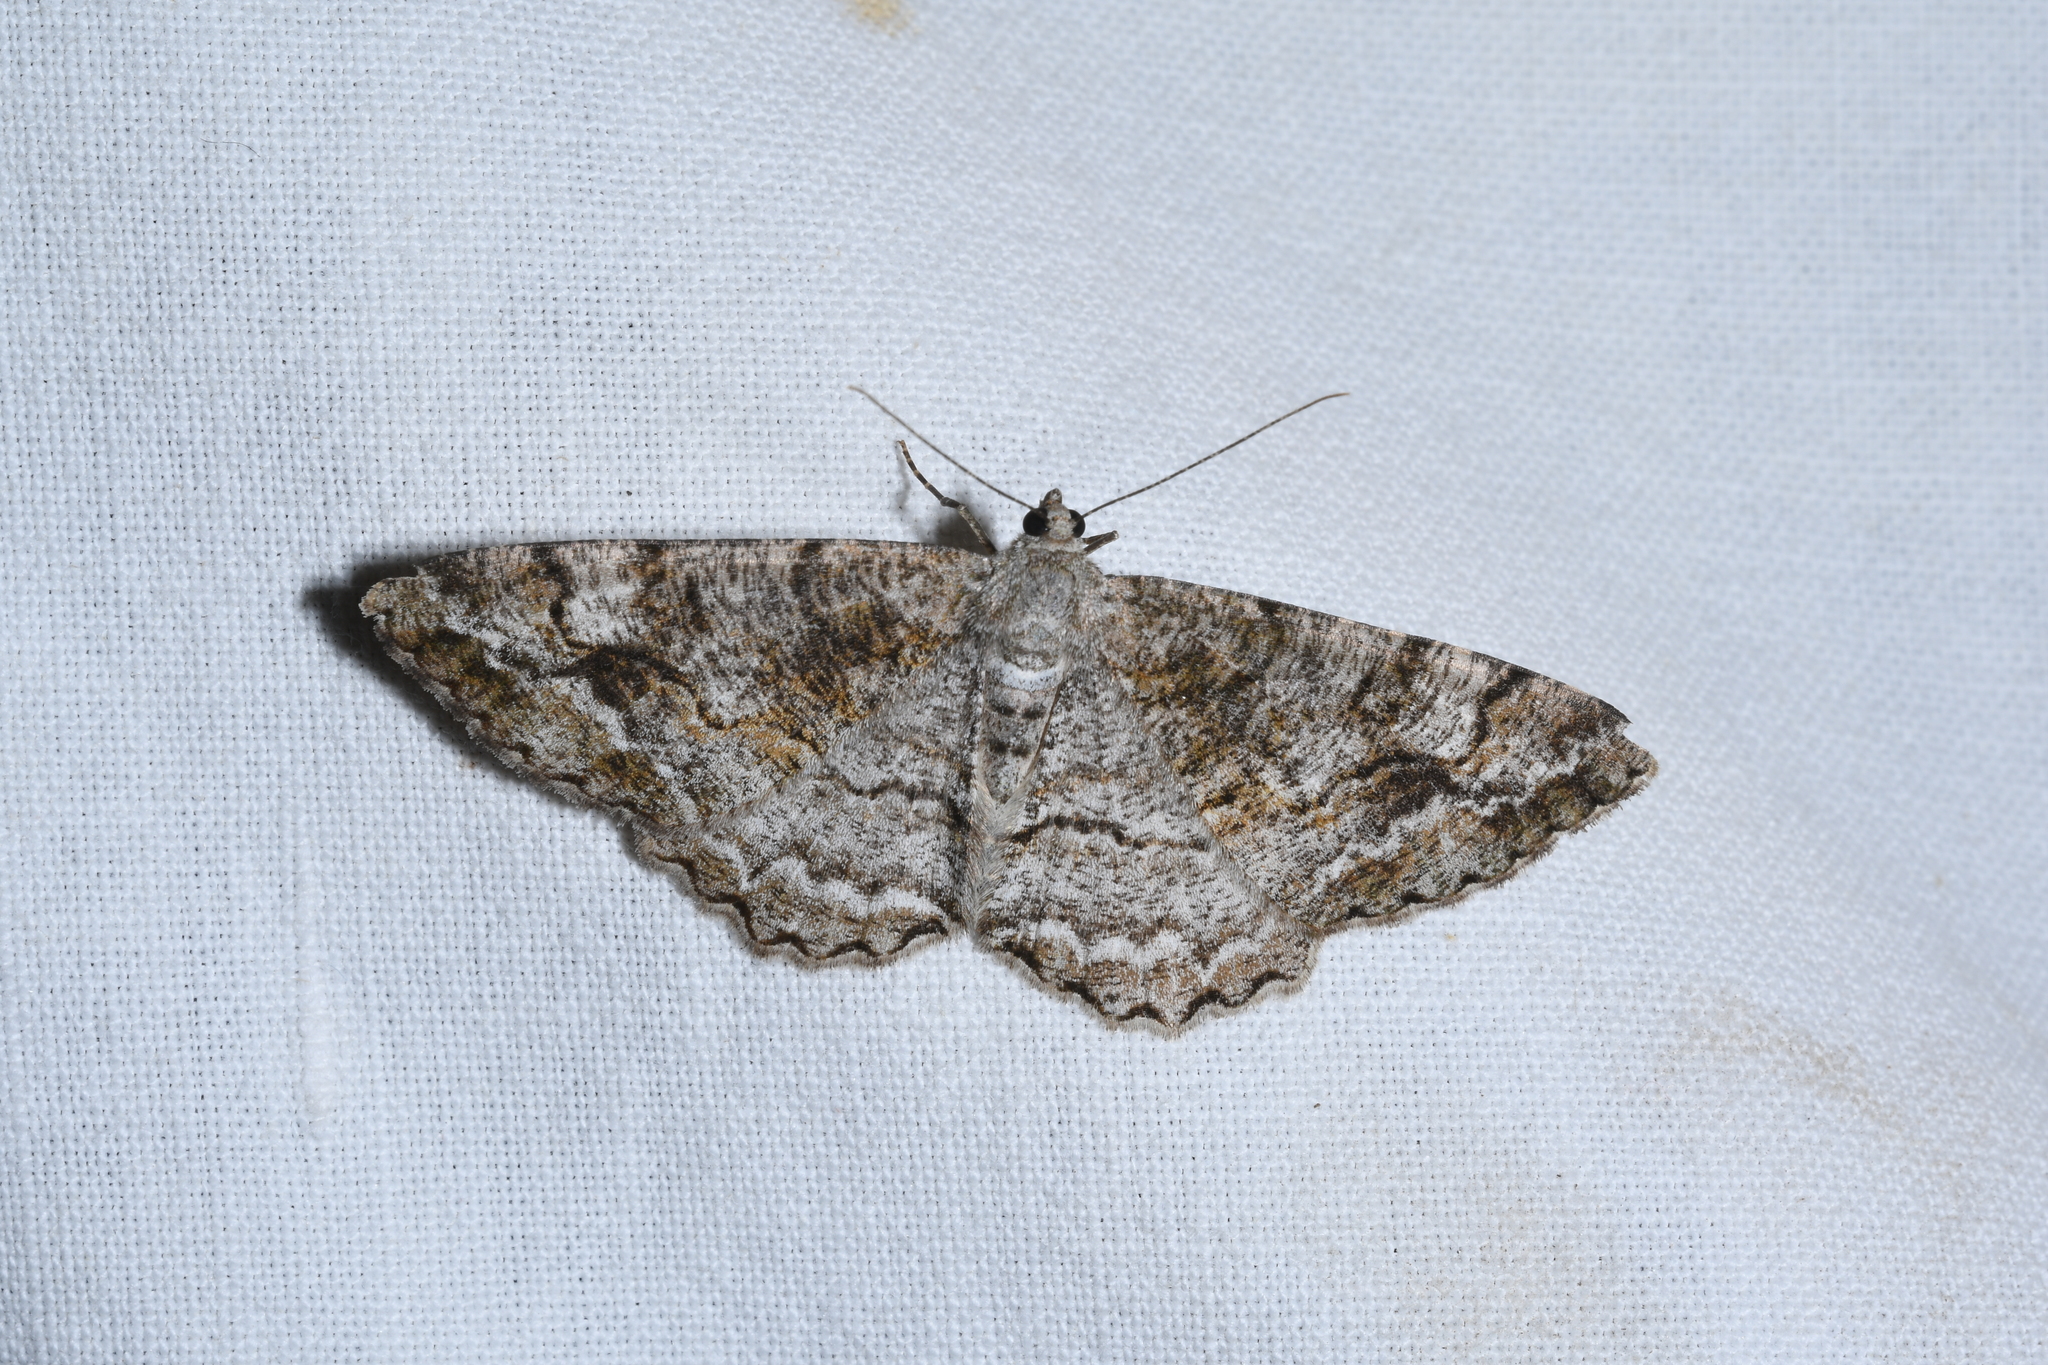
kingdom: Animalia
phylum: Arthropoda
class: Insecta
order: Lepidoptera
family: Geometridae
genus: Alcis
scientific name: Alcis repandata
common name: Mottled beauty
